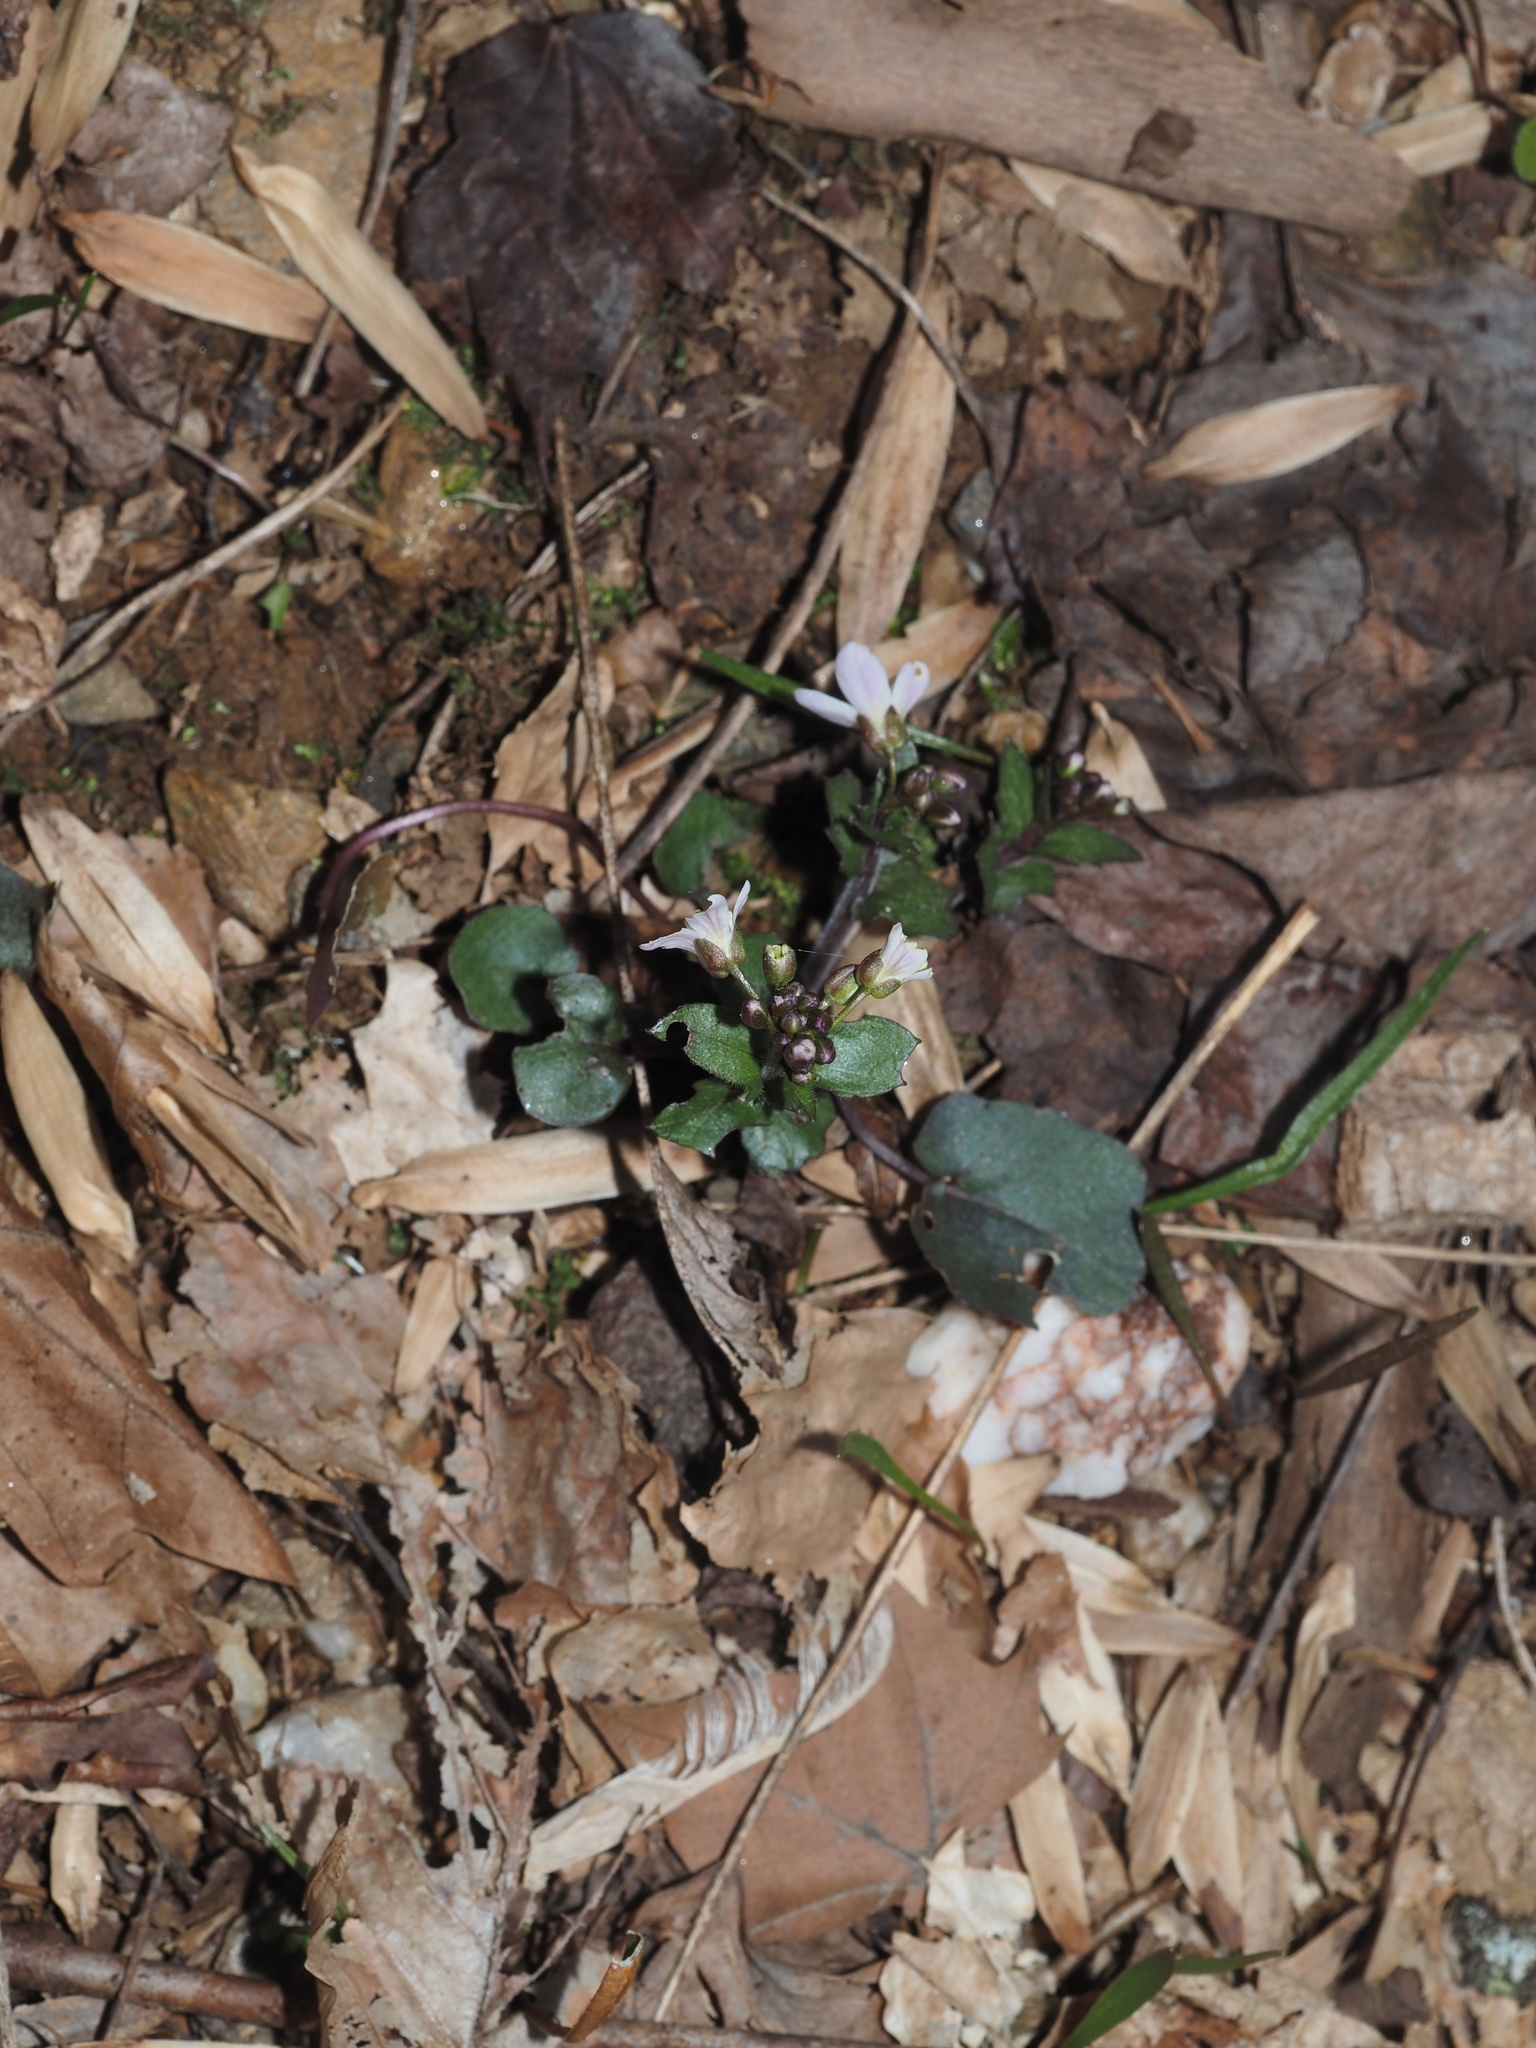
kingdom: Plantae
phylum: Tracheophyta
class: Magnoliopsida
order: Brassicales
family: Brassicaceae
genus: Cardamine
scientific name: Cardamine douglassii
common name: Purple cress
